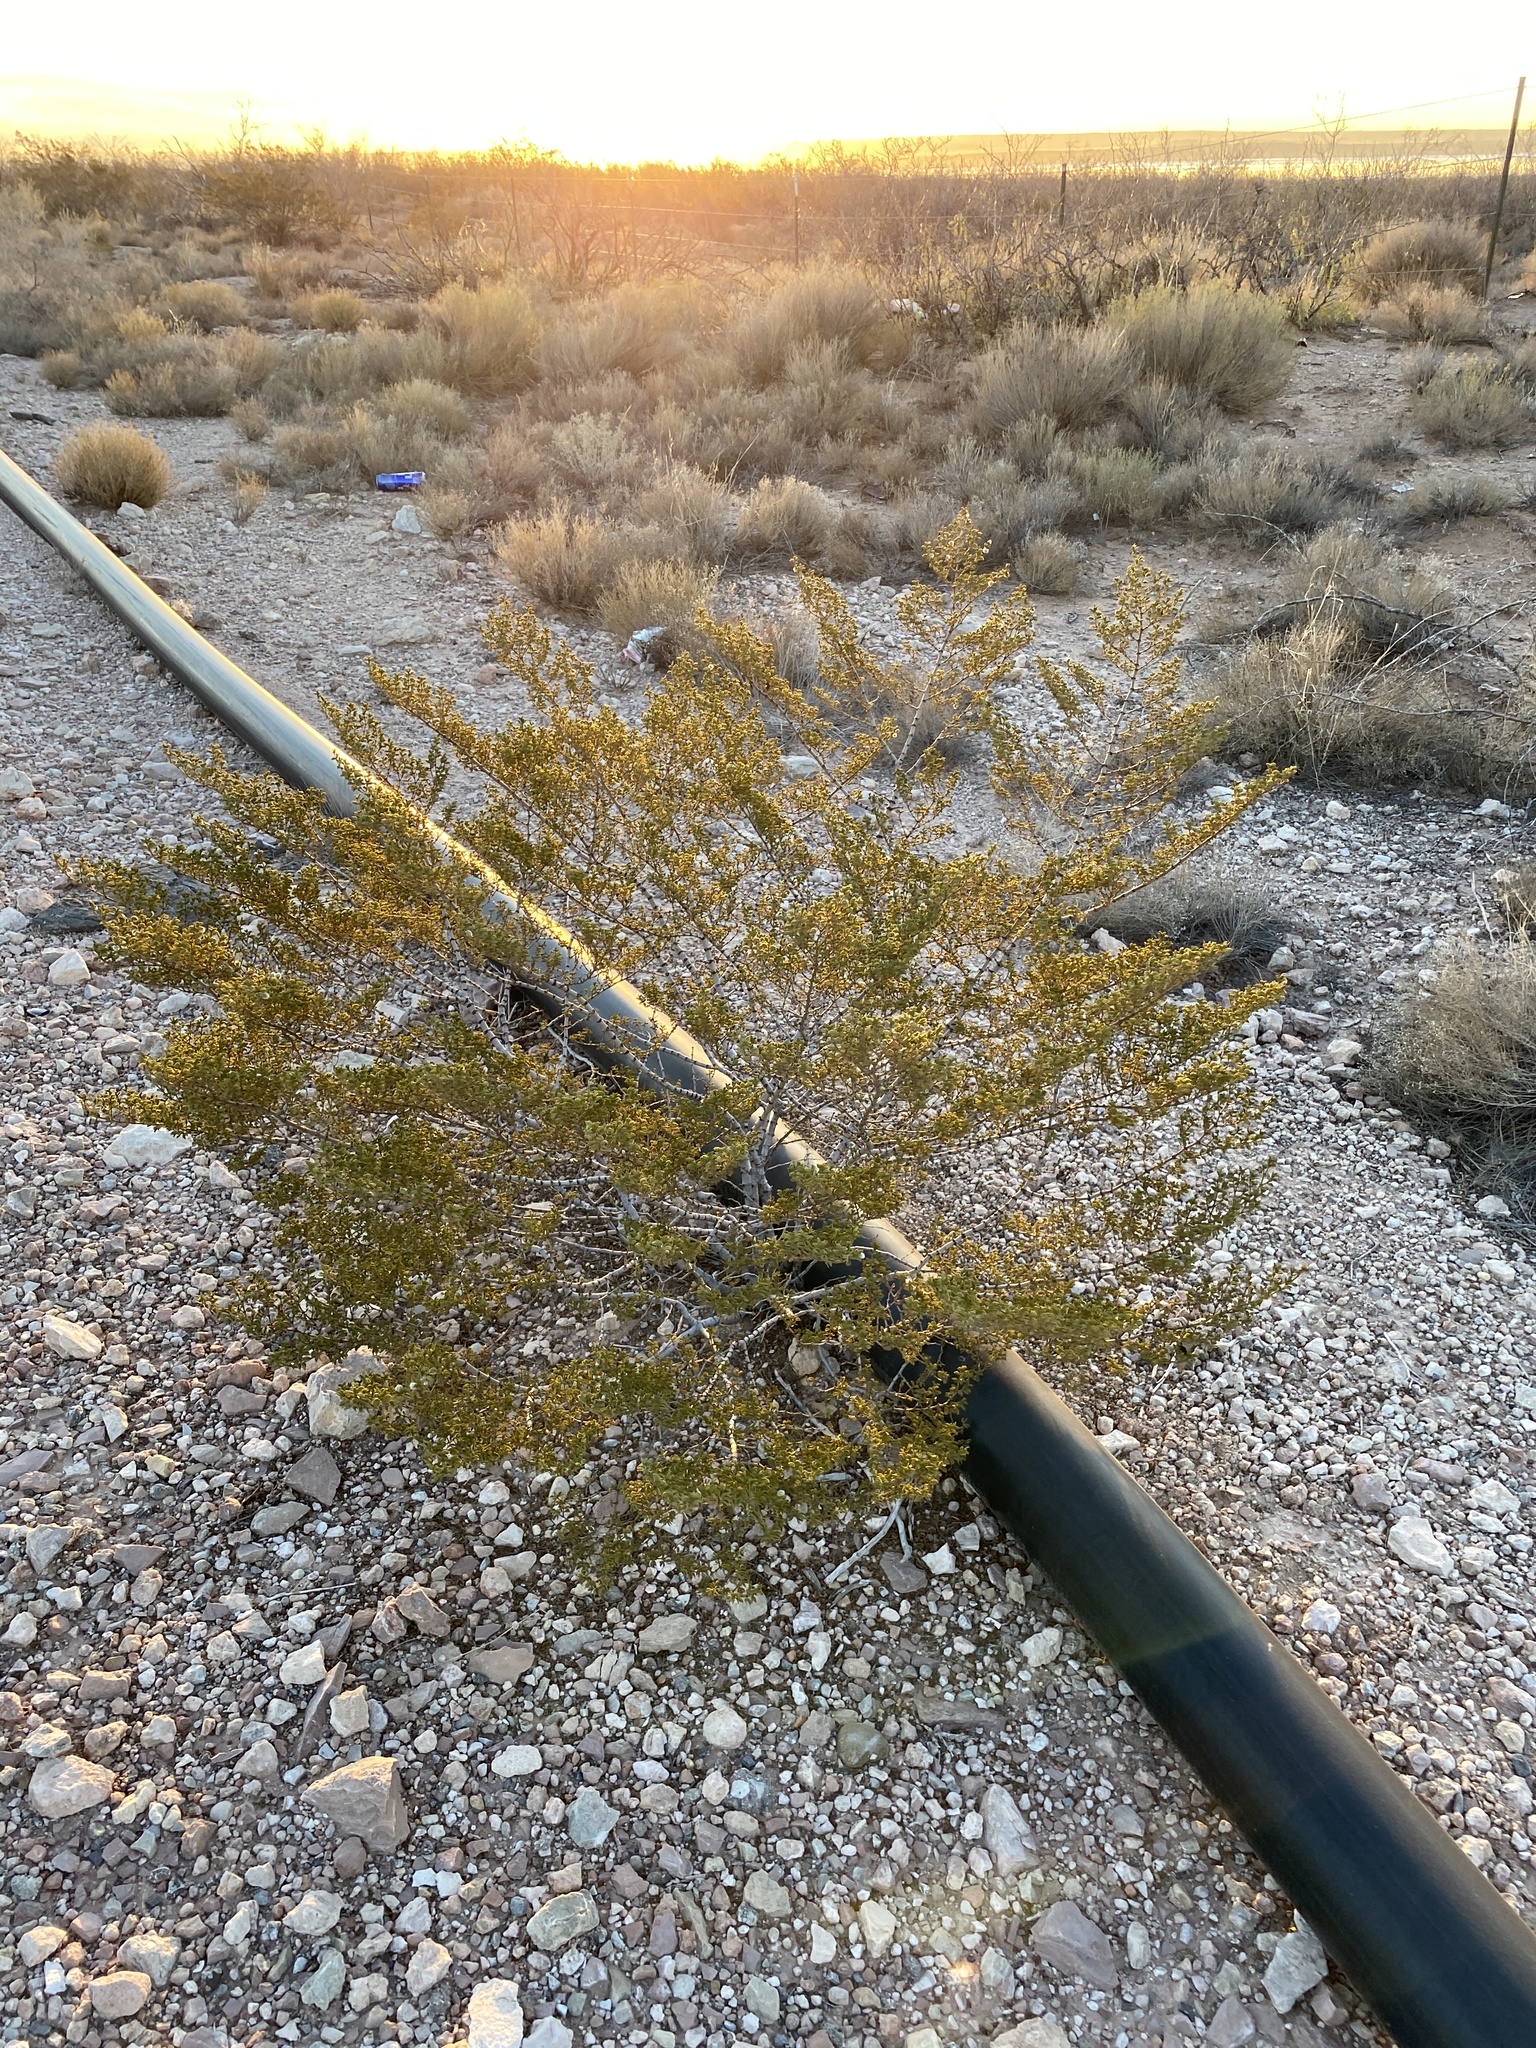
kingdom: Plantae
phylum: Tracheophyta
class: Magnoliopsida
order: Zygophyllales
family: Zygophyllaceae
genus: Larrea
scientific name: Larrea tridentata
